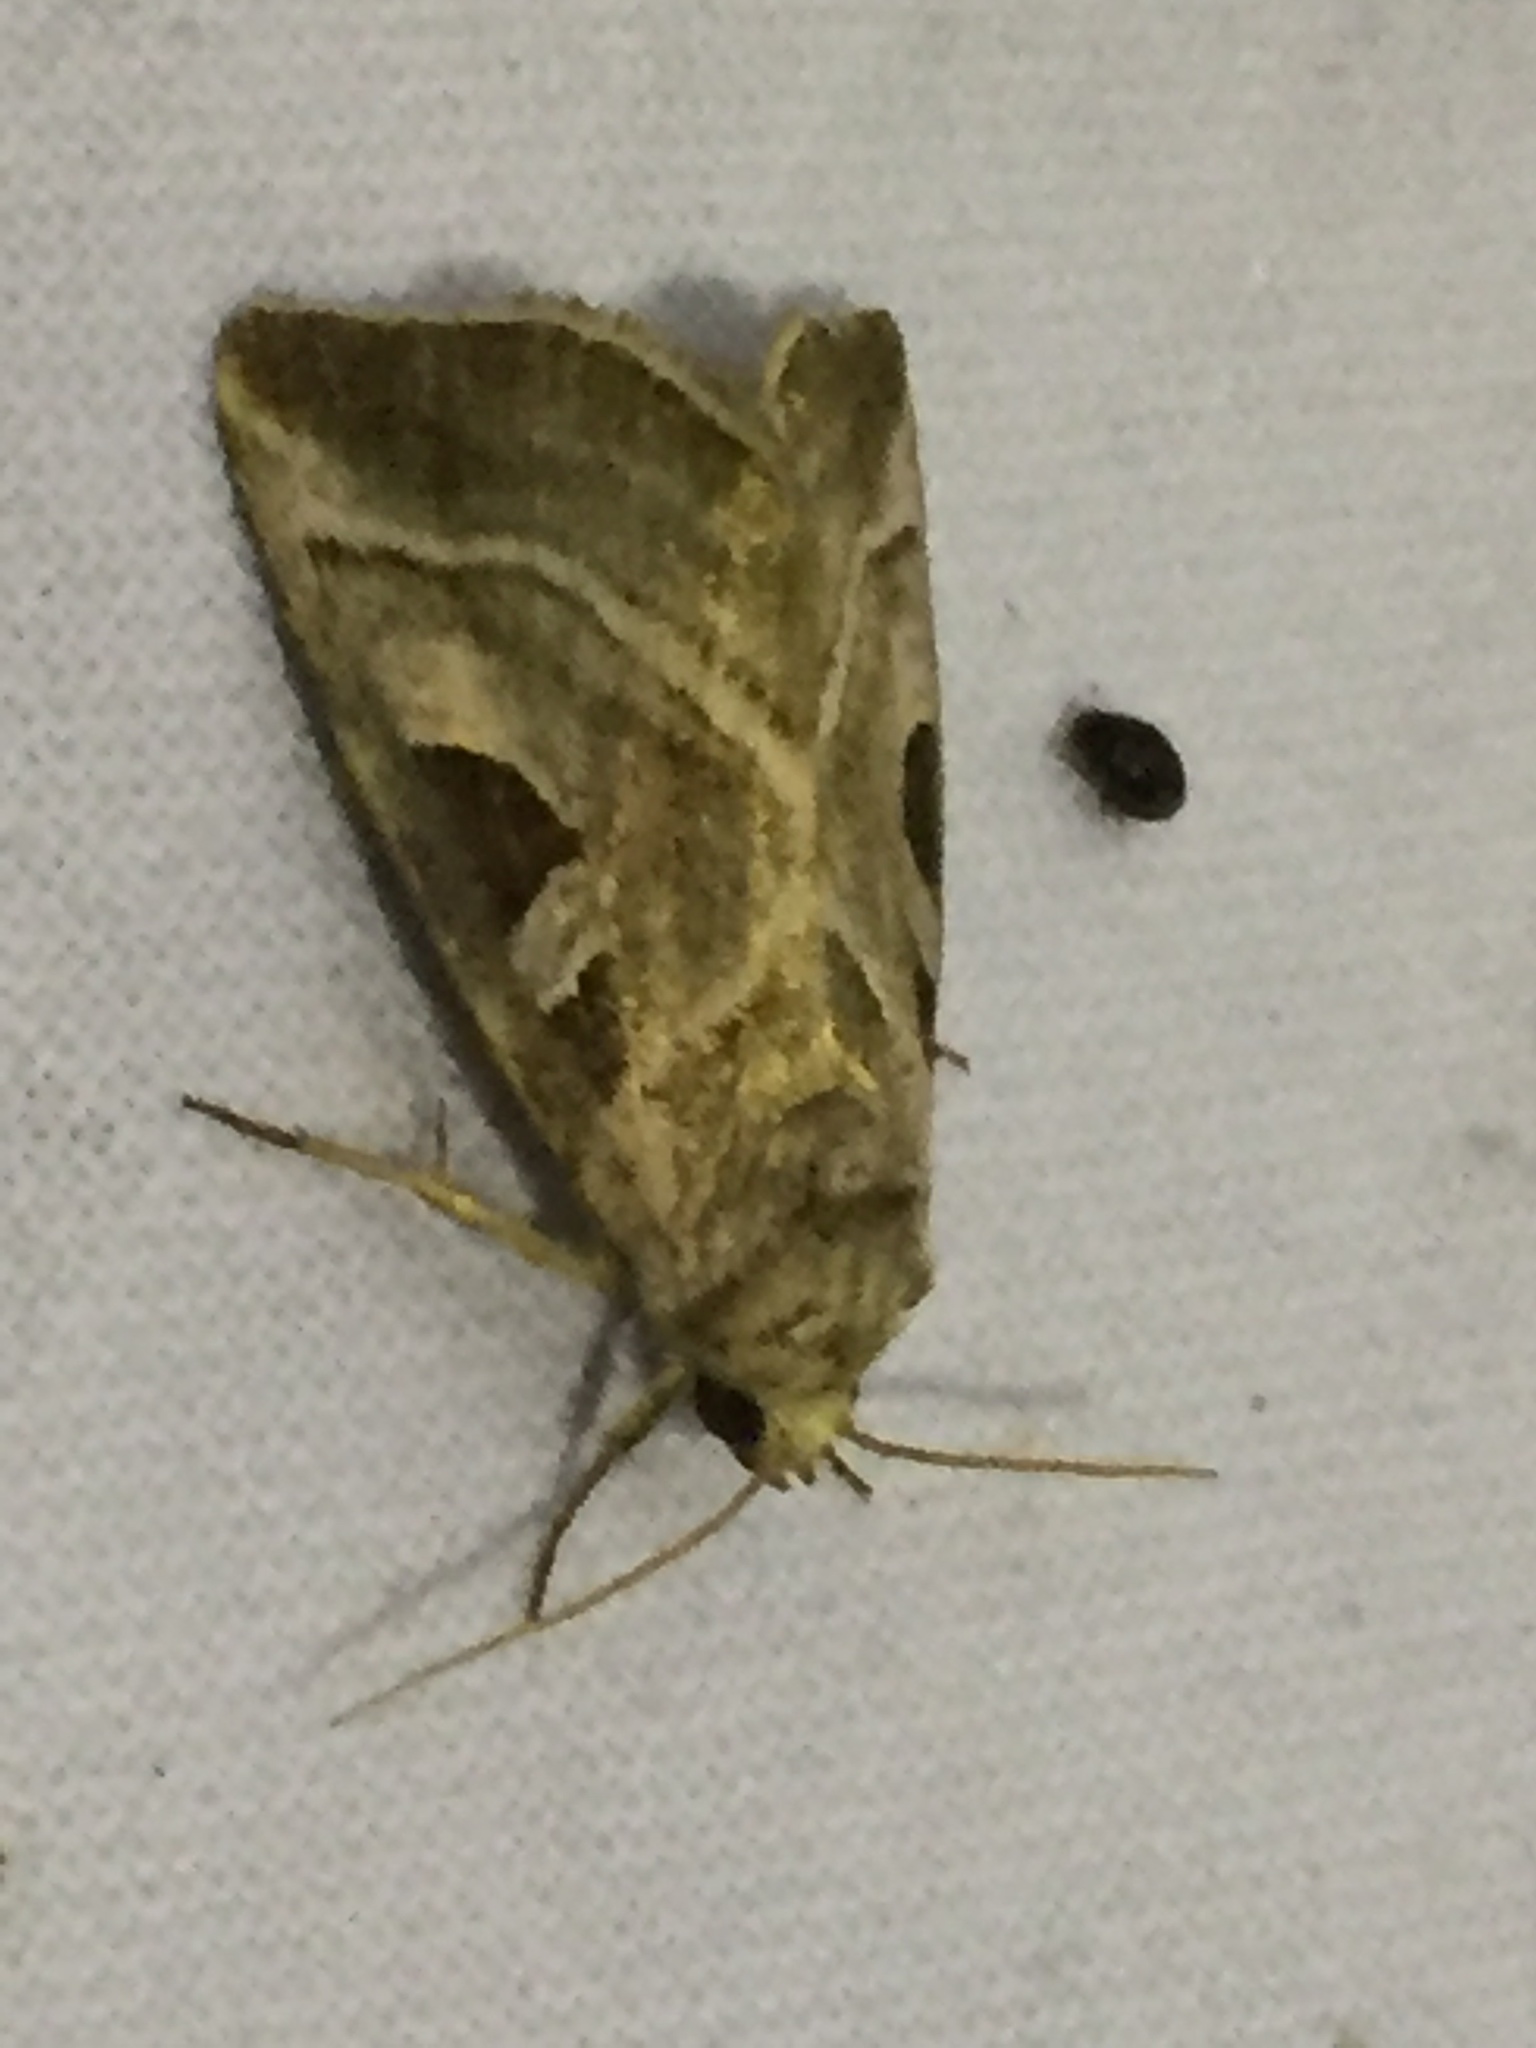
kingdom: Animalia
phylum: Arthropoda
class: Insecta
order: Lepidoptera
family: Noctuidae
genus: Eucarta
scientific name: Eucarta virgo
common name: Silvery gem
